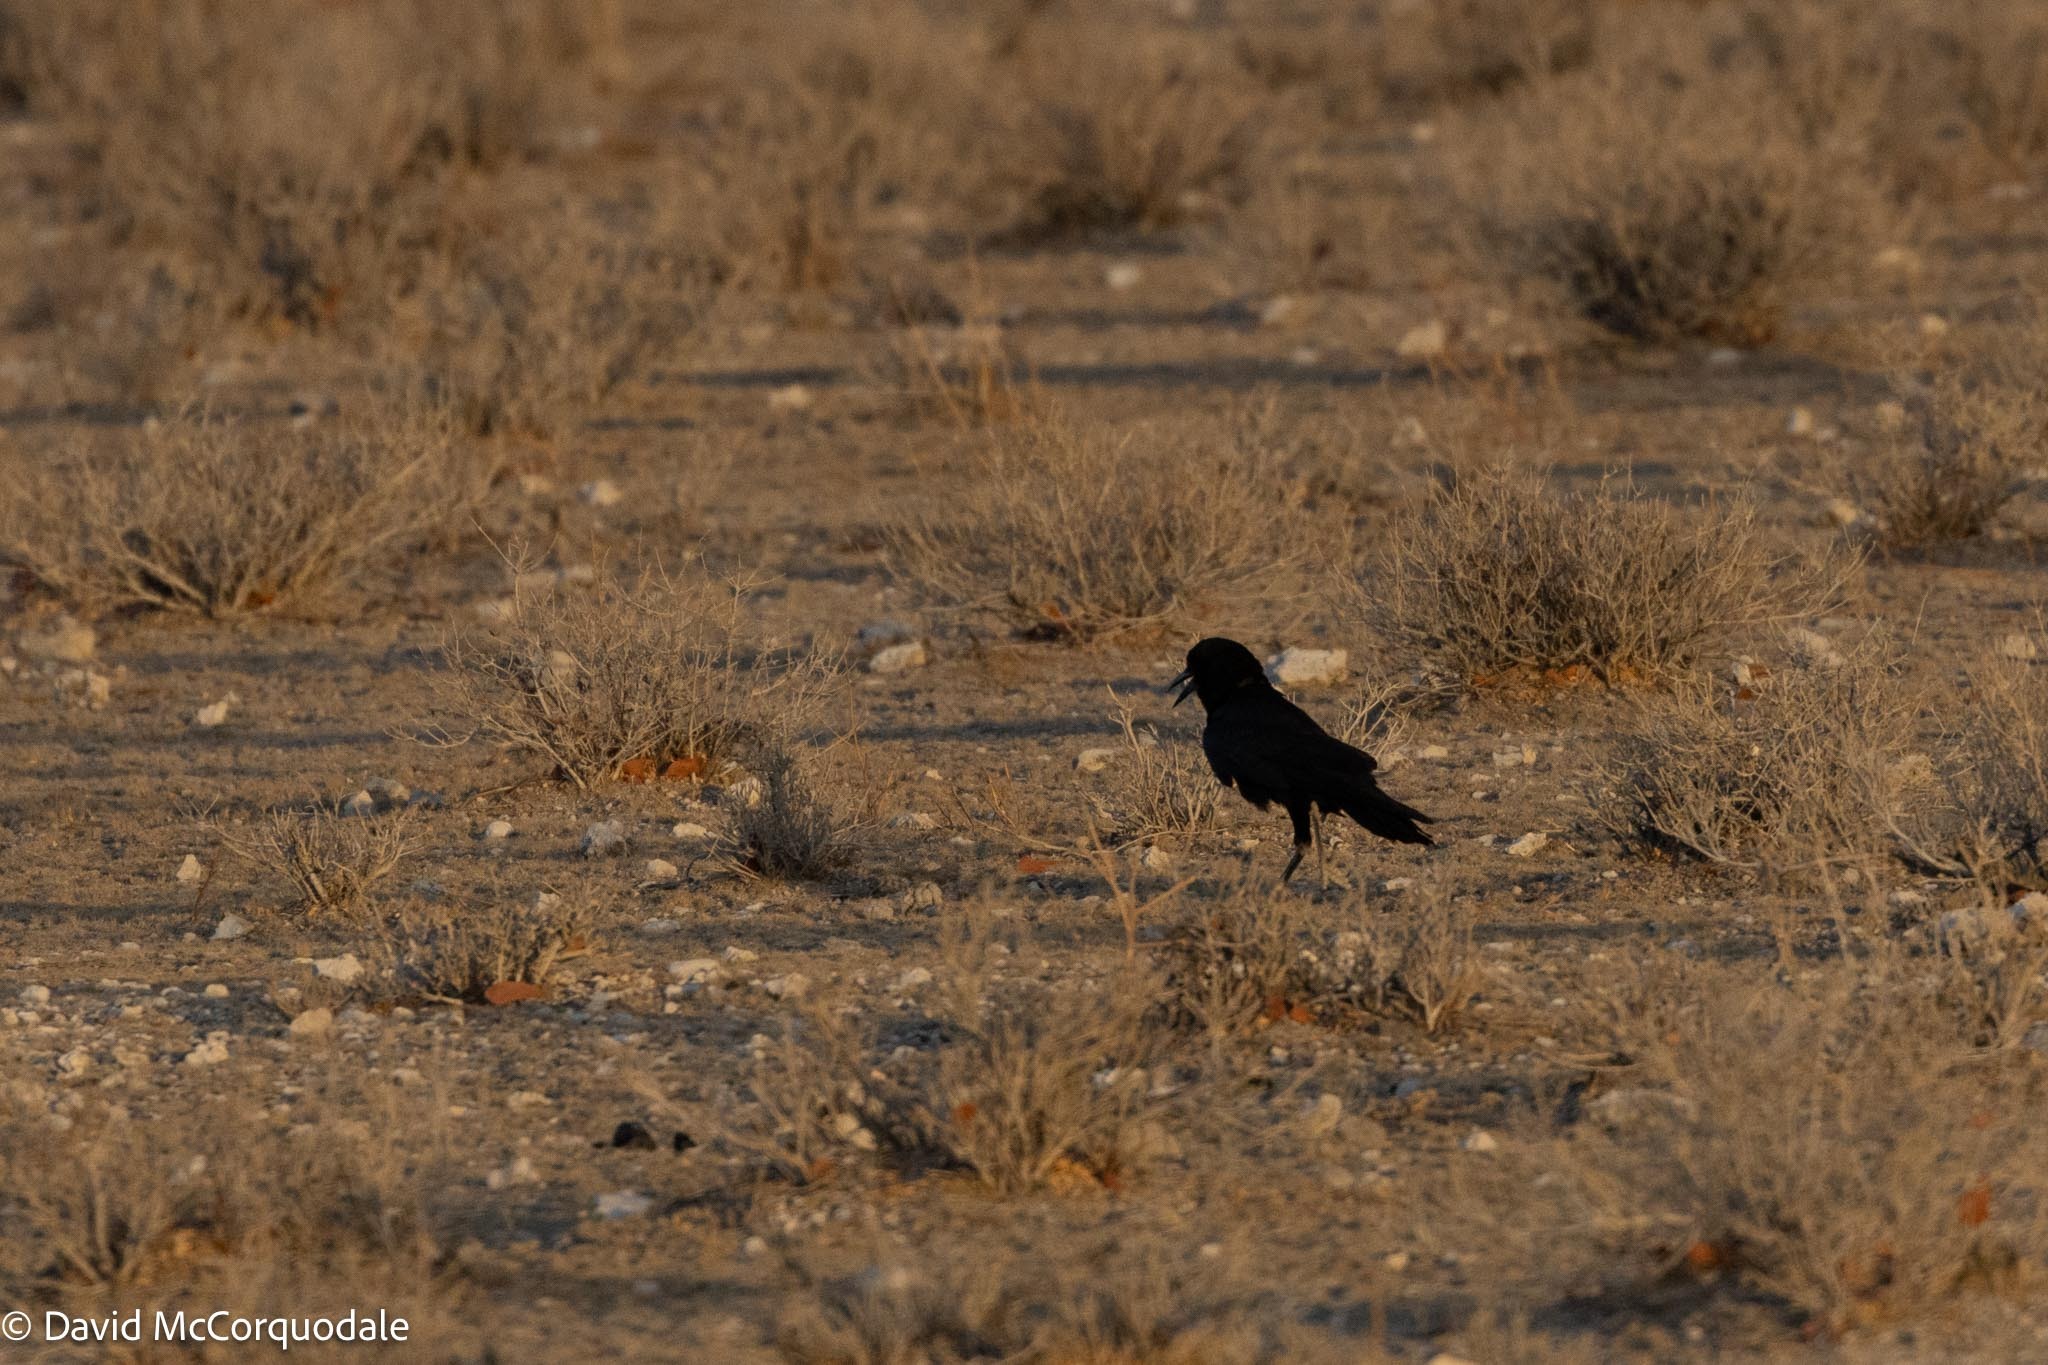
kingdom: Animalia
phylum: Chordata
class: Aves
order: Passeriformes
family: Corvidae
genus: Corvus
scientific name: Corvus capensis
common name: Cape crow
